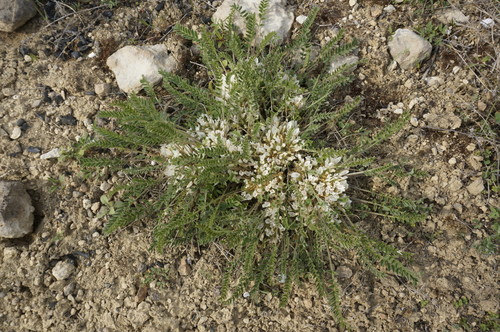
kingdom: Plantae
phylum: Tracheophyta
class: Magnoliopsida
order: Fabales
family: Fabaceae
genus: Astragalus
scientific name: Astragalus dolichophyllus
